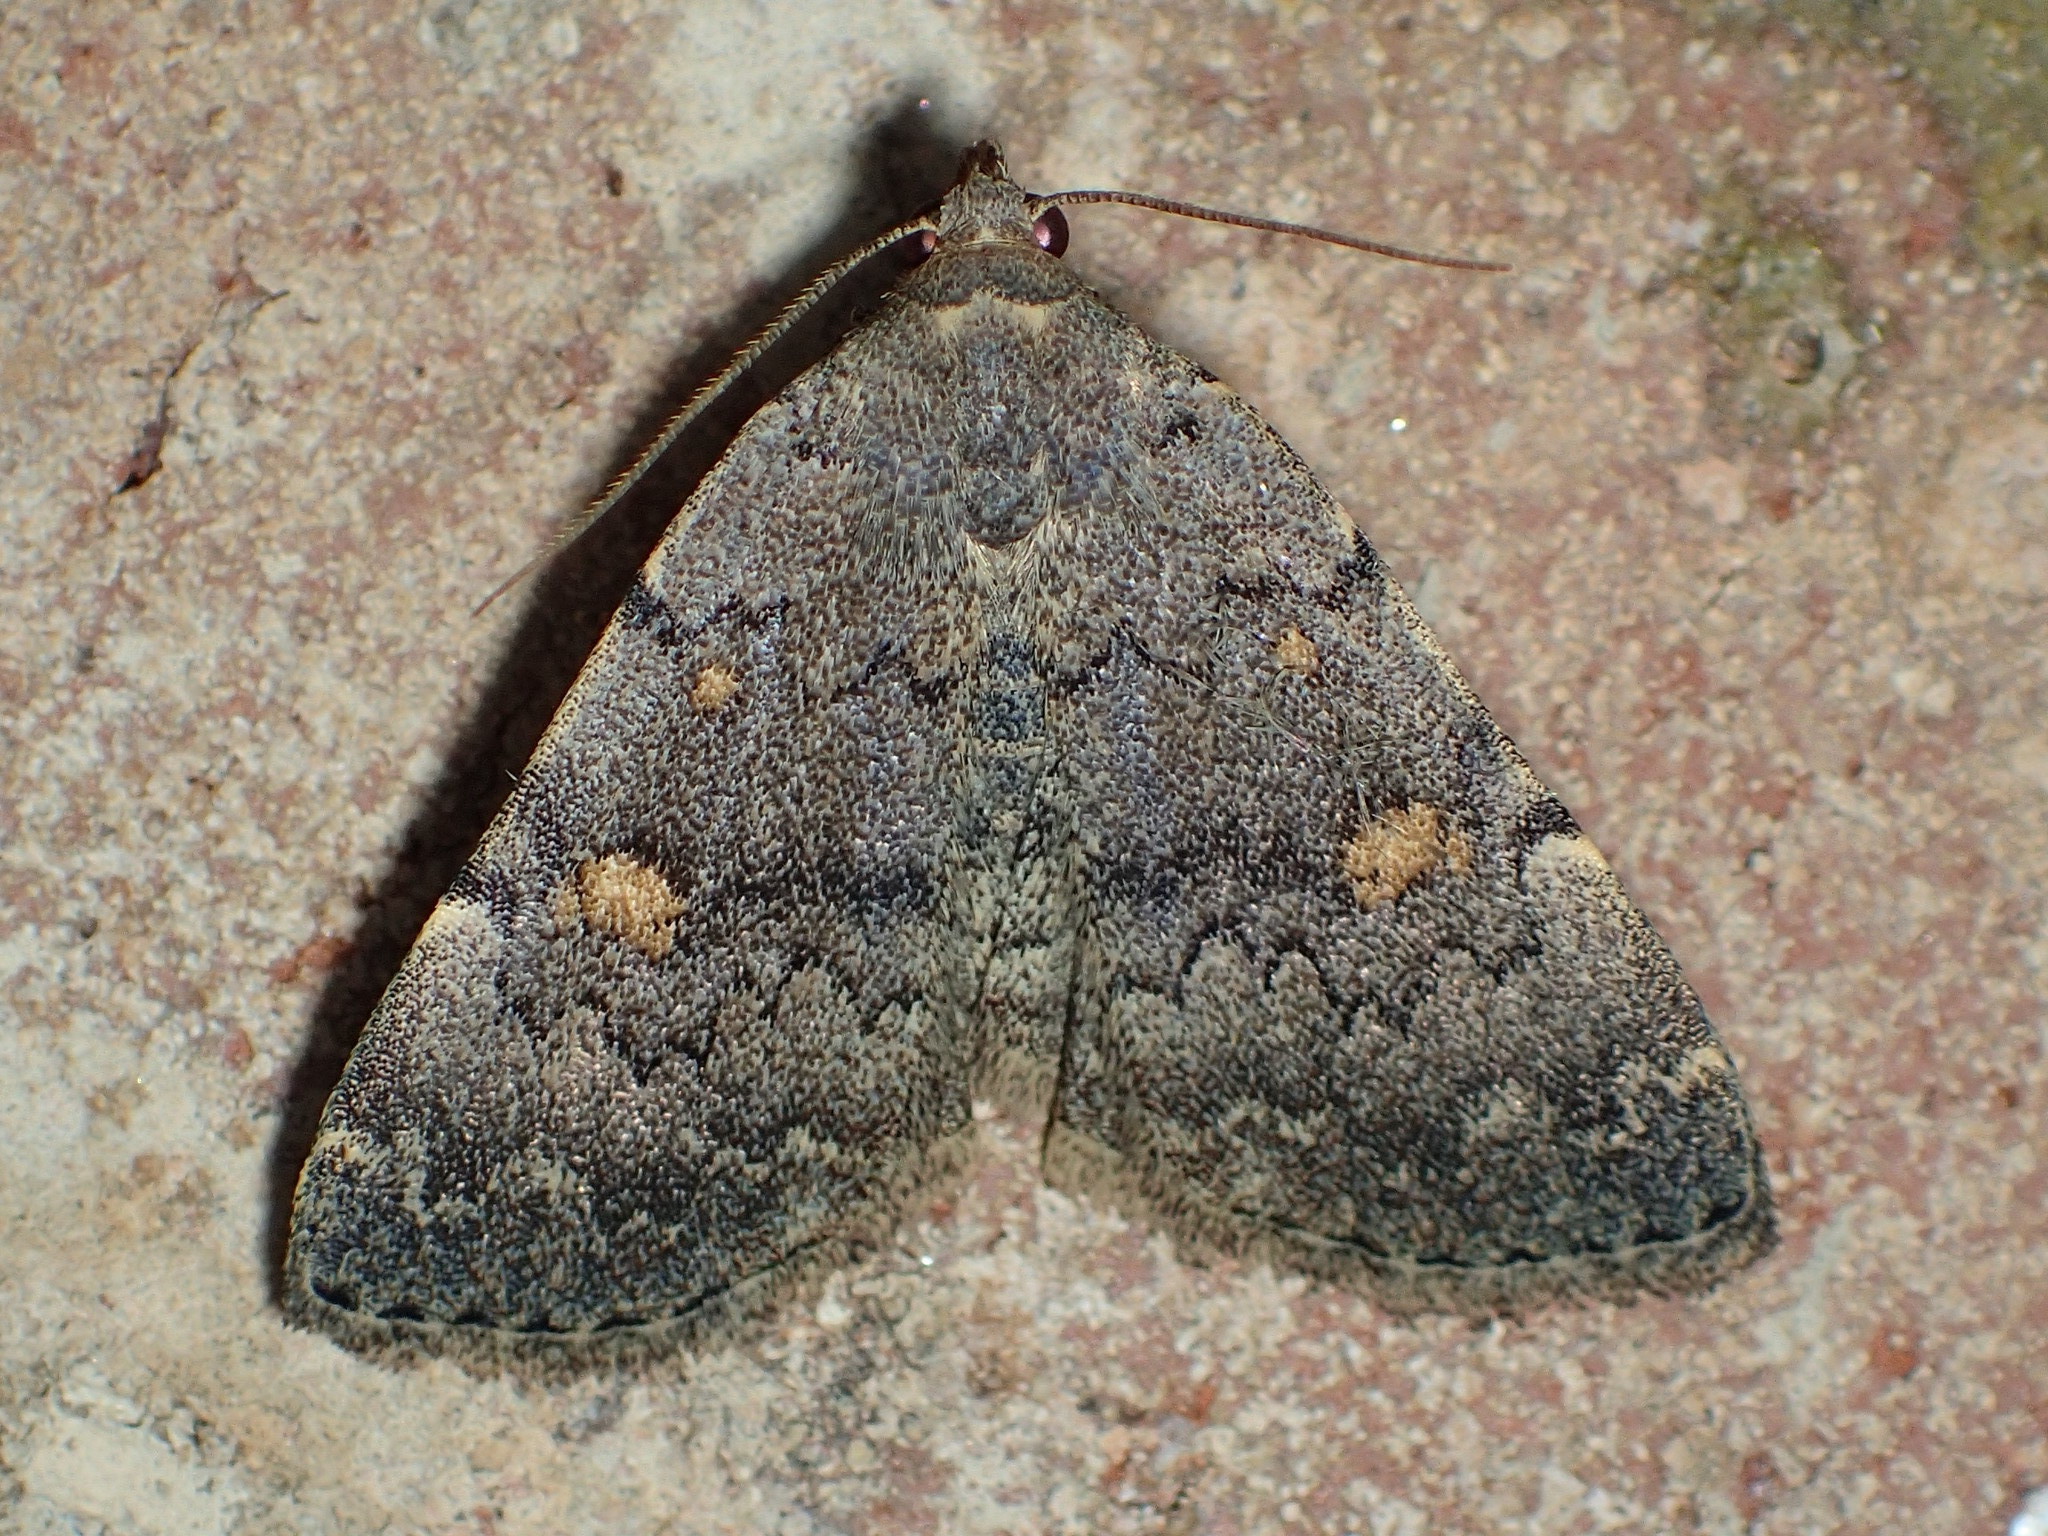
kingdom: Animalia
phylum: Arthropoda
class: Insecta
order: Lepidoptera
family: Erebidae
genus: Idia
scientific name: Idia aemula
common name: Common idia moth
